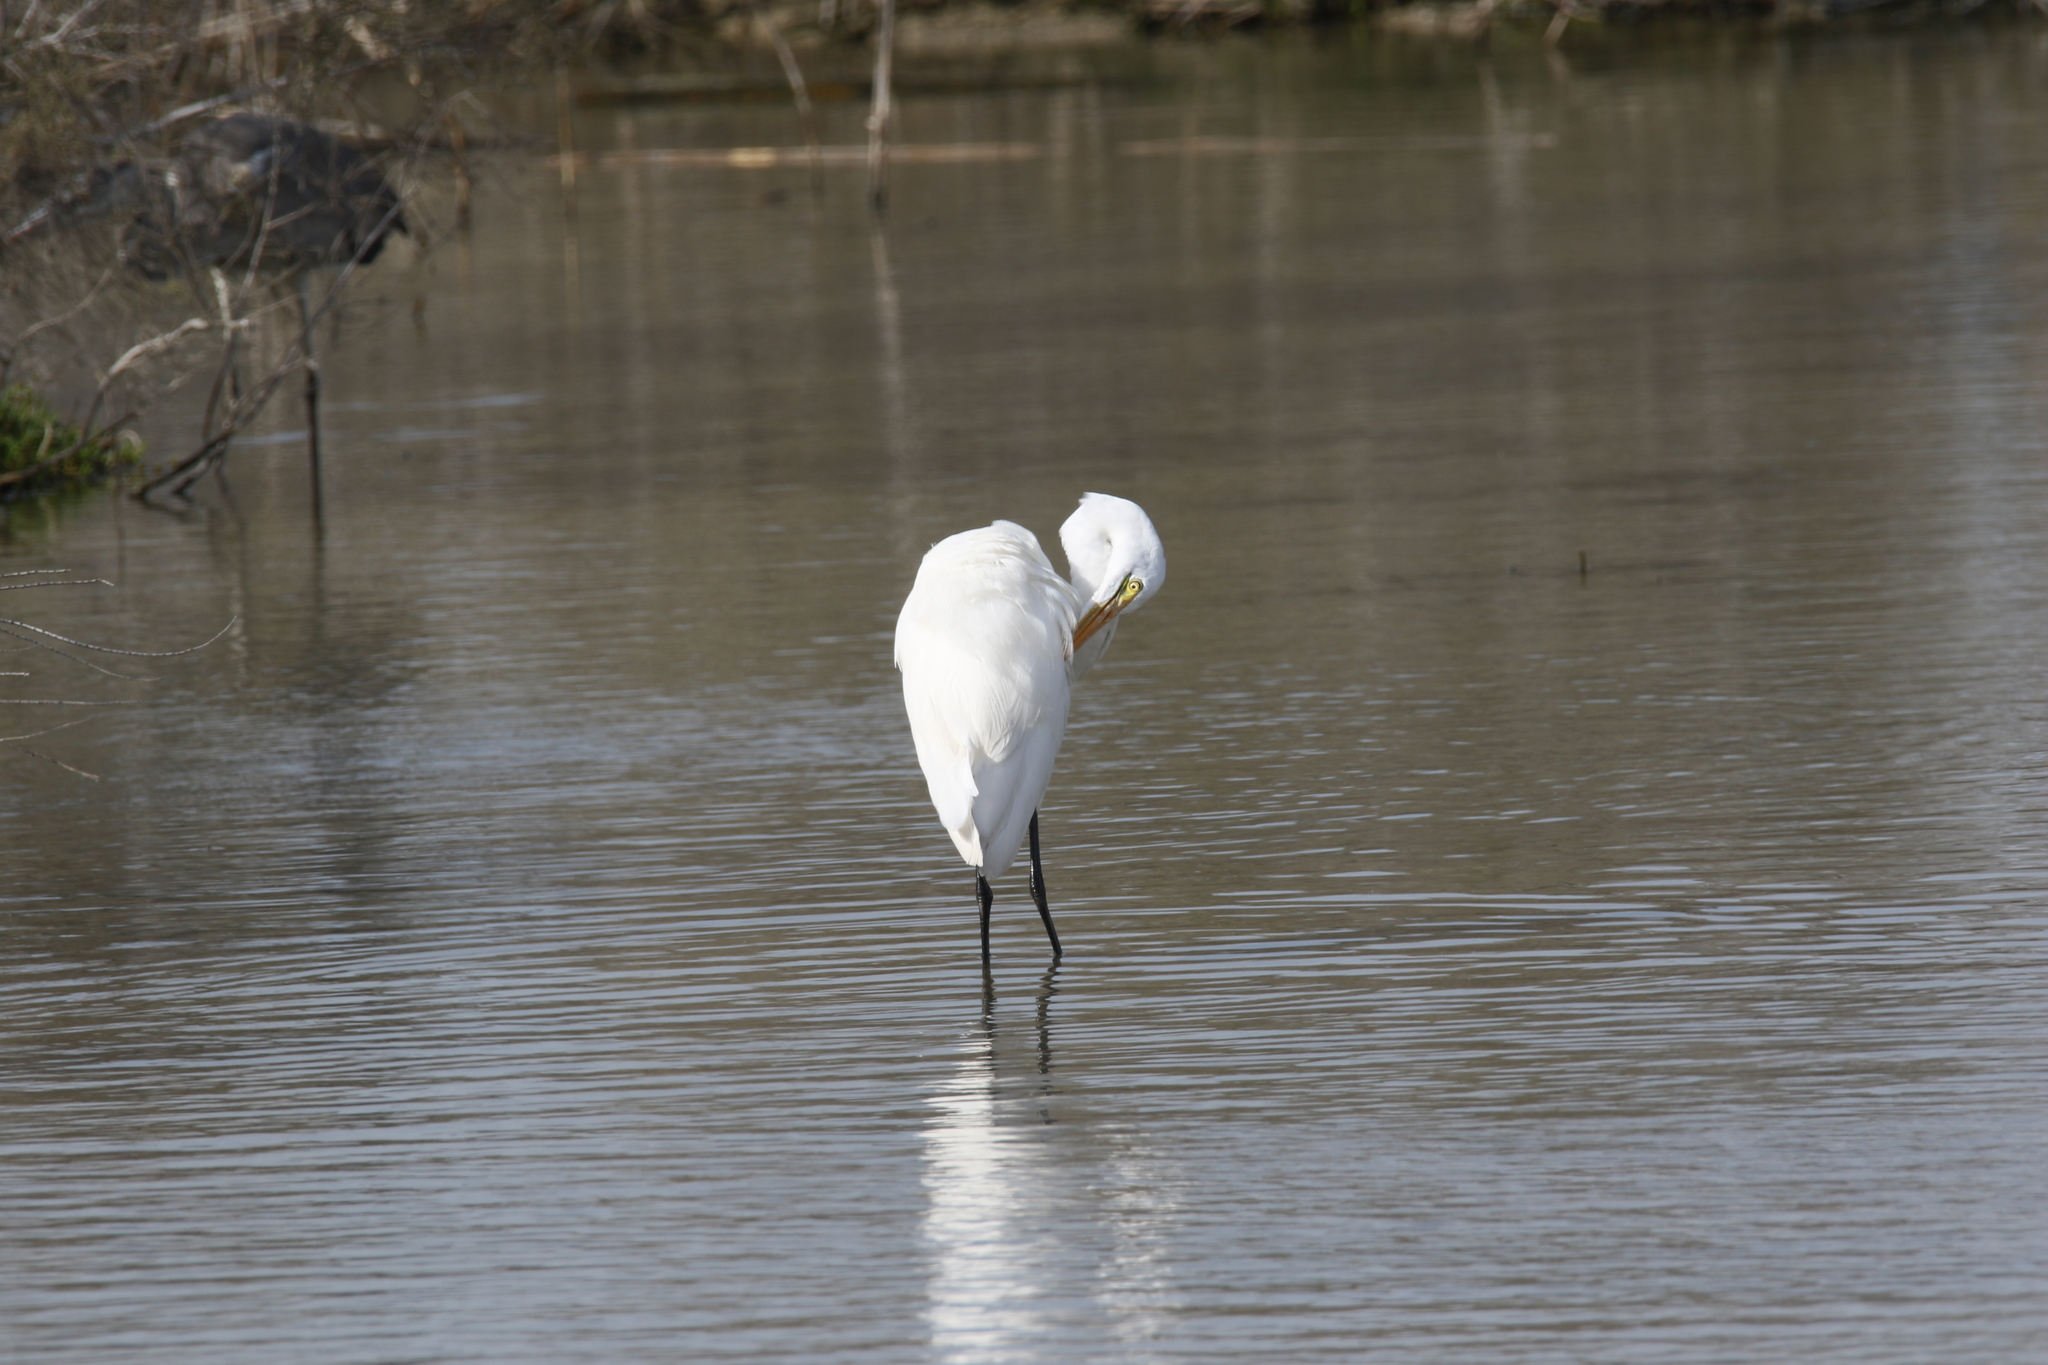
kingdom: Animalia
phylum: Chordata
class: Aves
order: Pelecaniformes
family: Ardeidae
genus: Ardea
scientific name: Ardea alba
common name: Great egret
